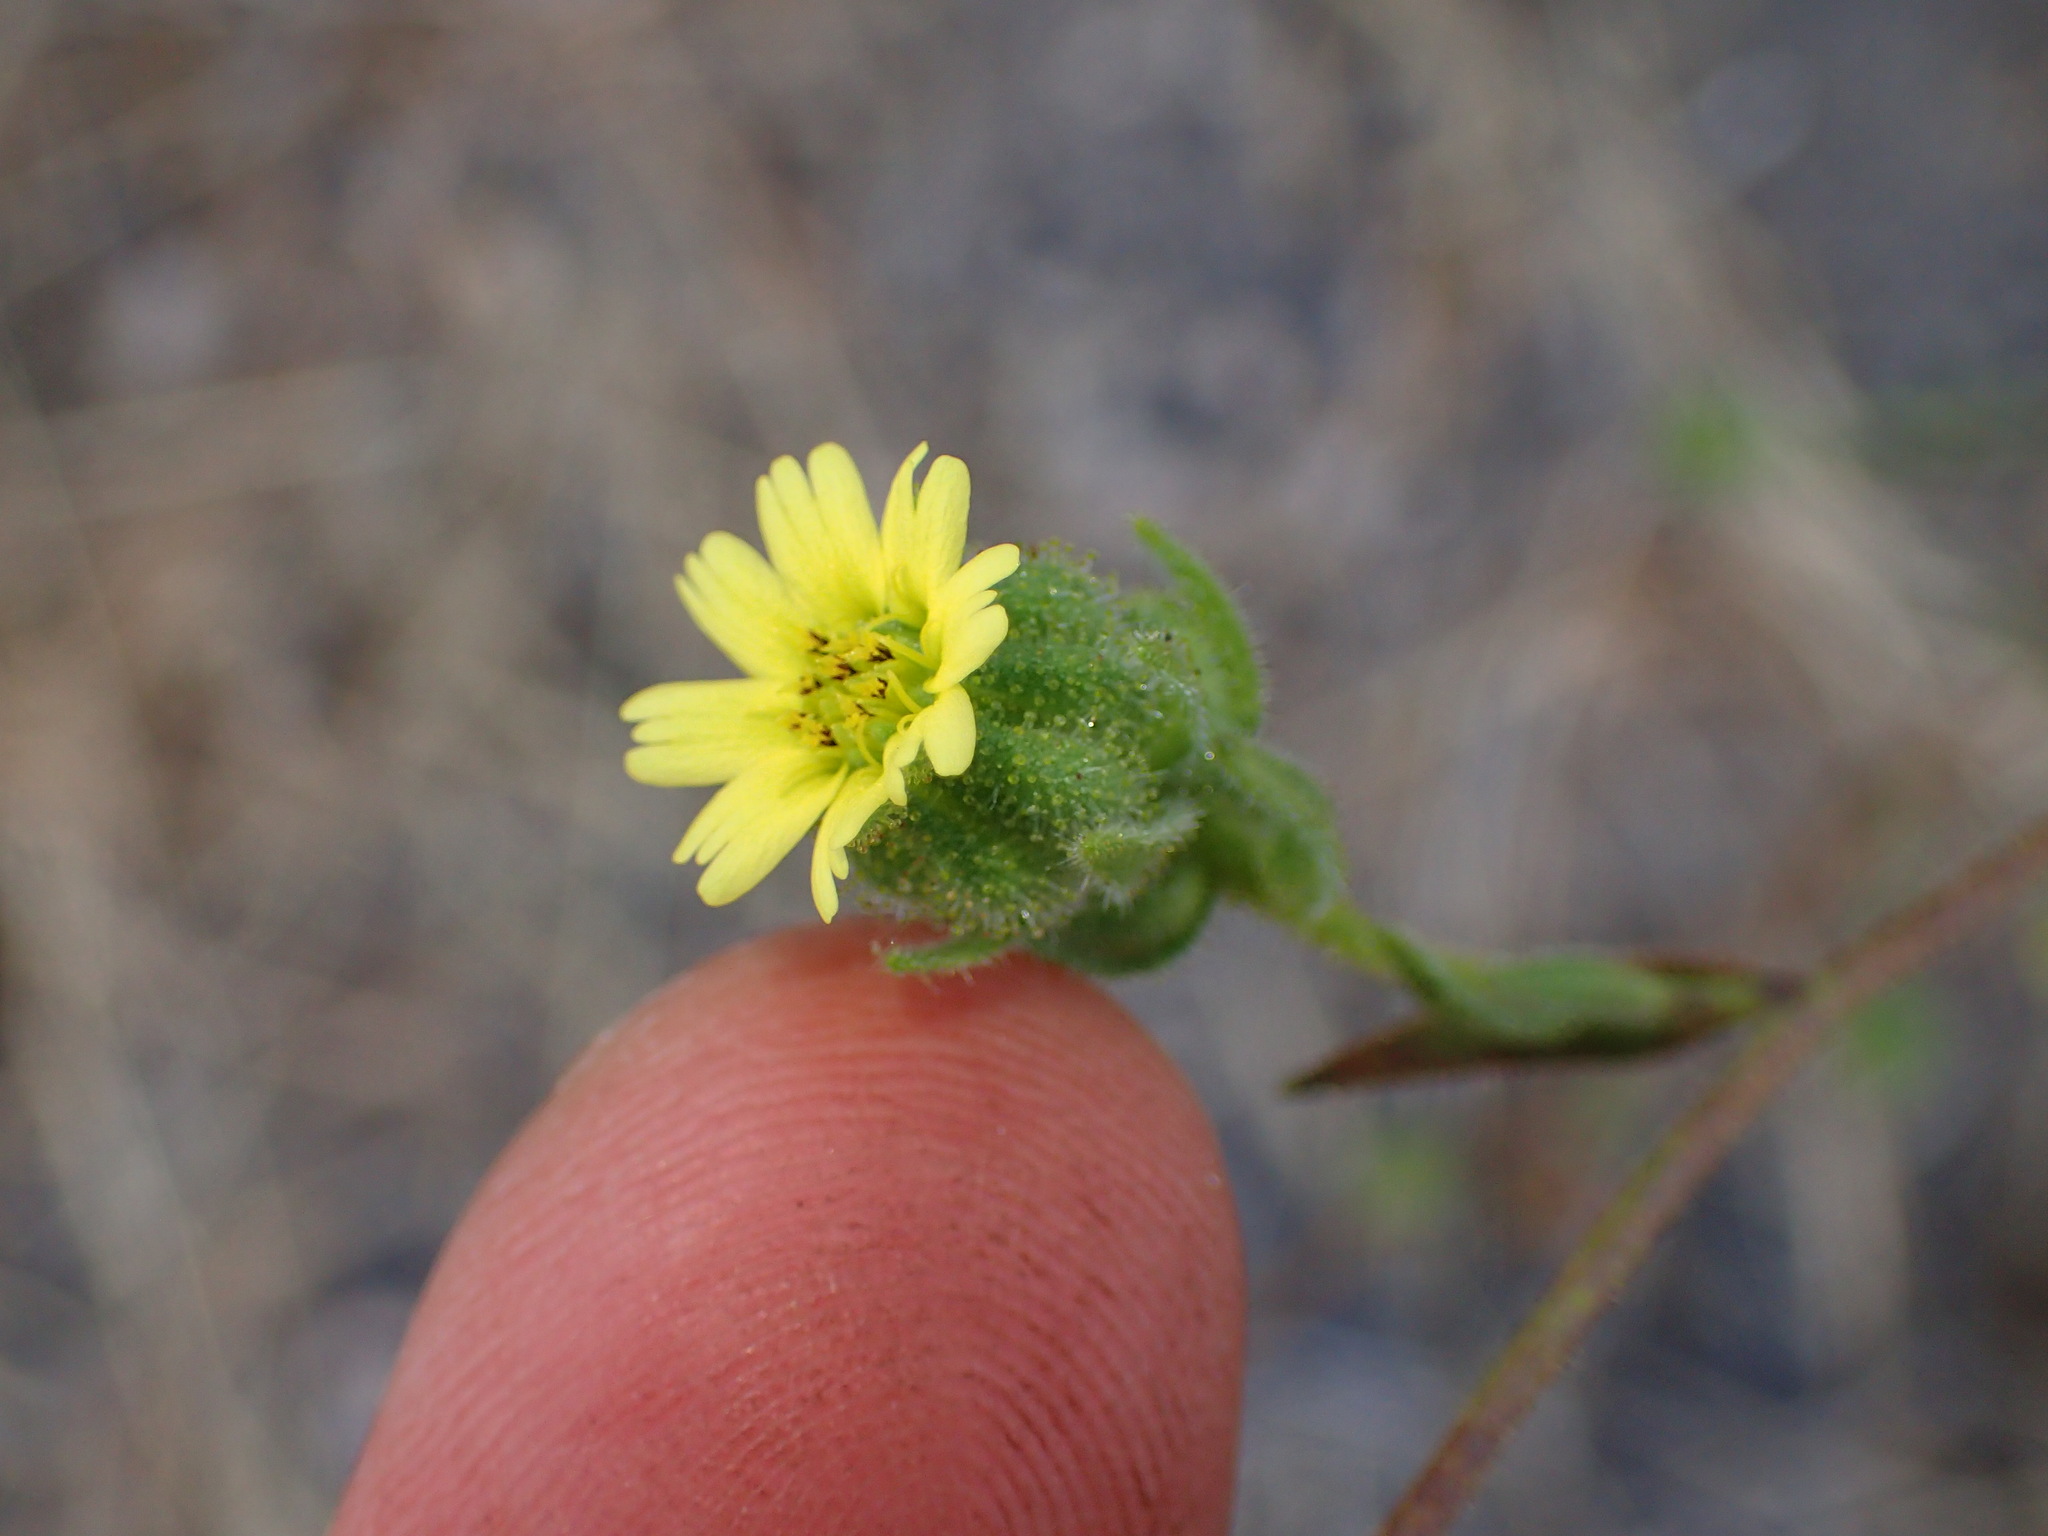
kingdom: Plantae
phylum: Tracheophyta
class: Magnoliopsida
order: Asterales
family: Asteraceae
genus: Madia
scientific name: Madia gracilis
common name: Grassy tarweed
